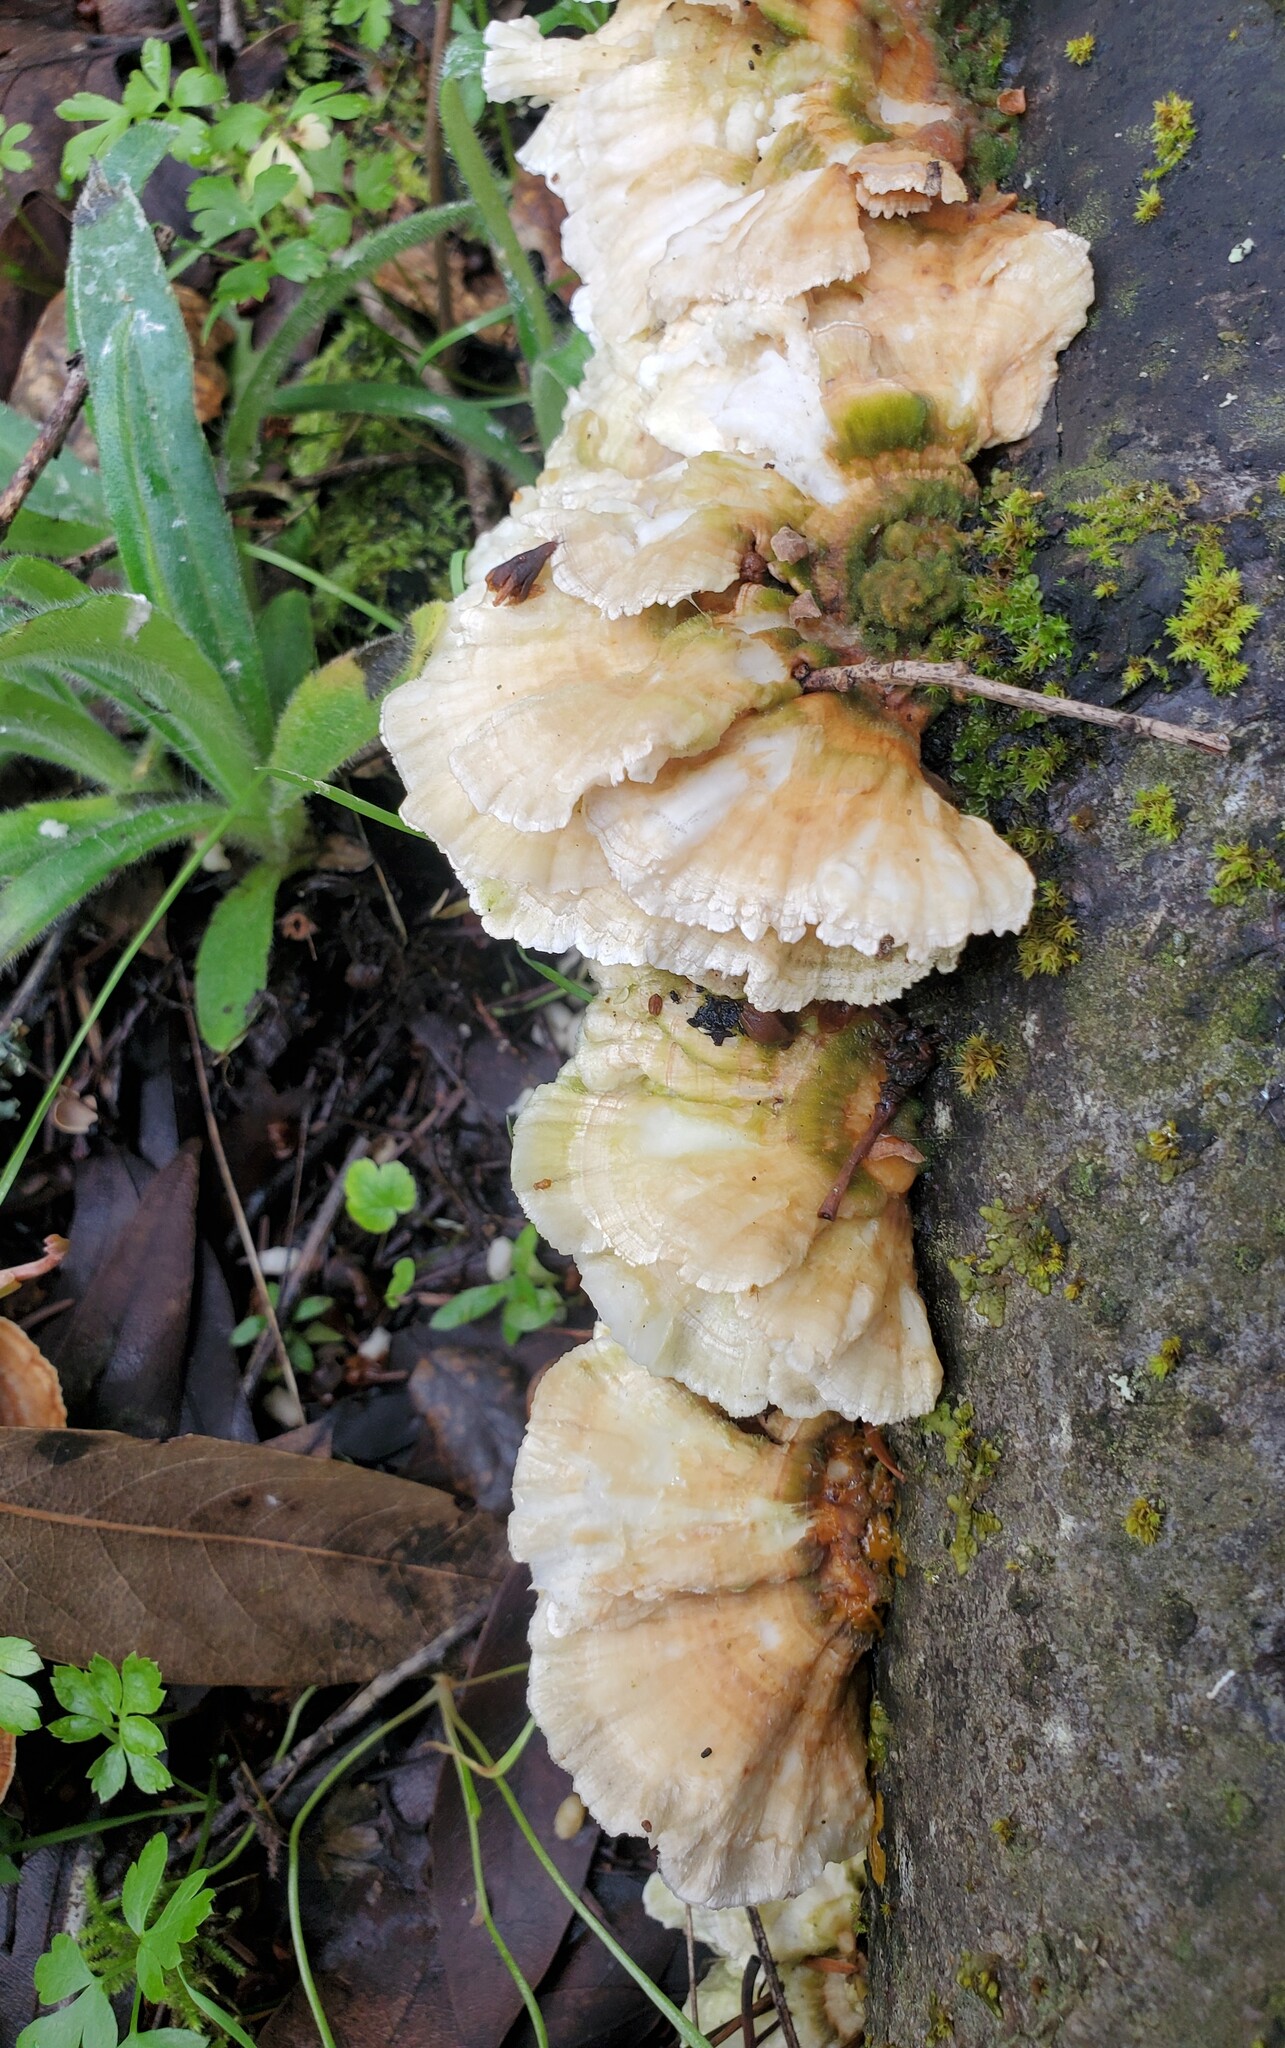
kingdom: Fungi
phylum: Basidiomycota
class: Agaricomycetes
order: Polyporales
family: Polyporaceae
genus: Trametes
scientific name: Trametes versicolor
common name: Turkeytail
